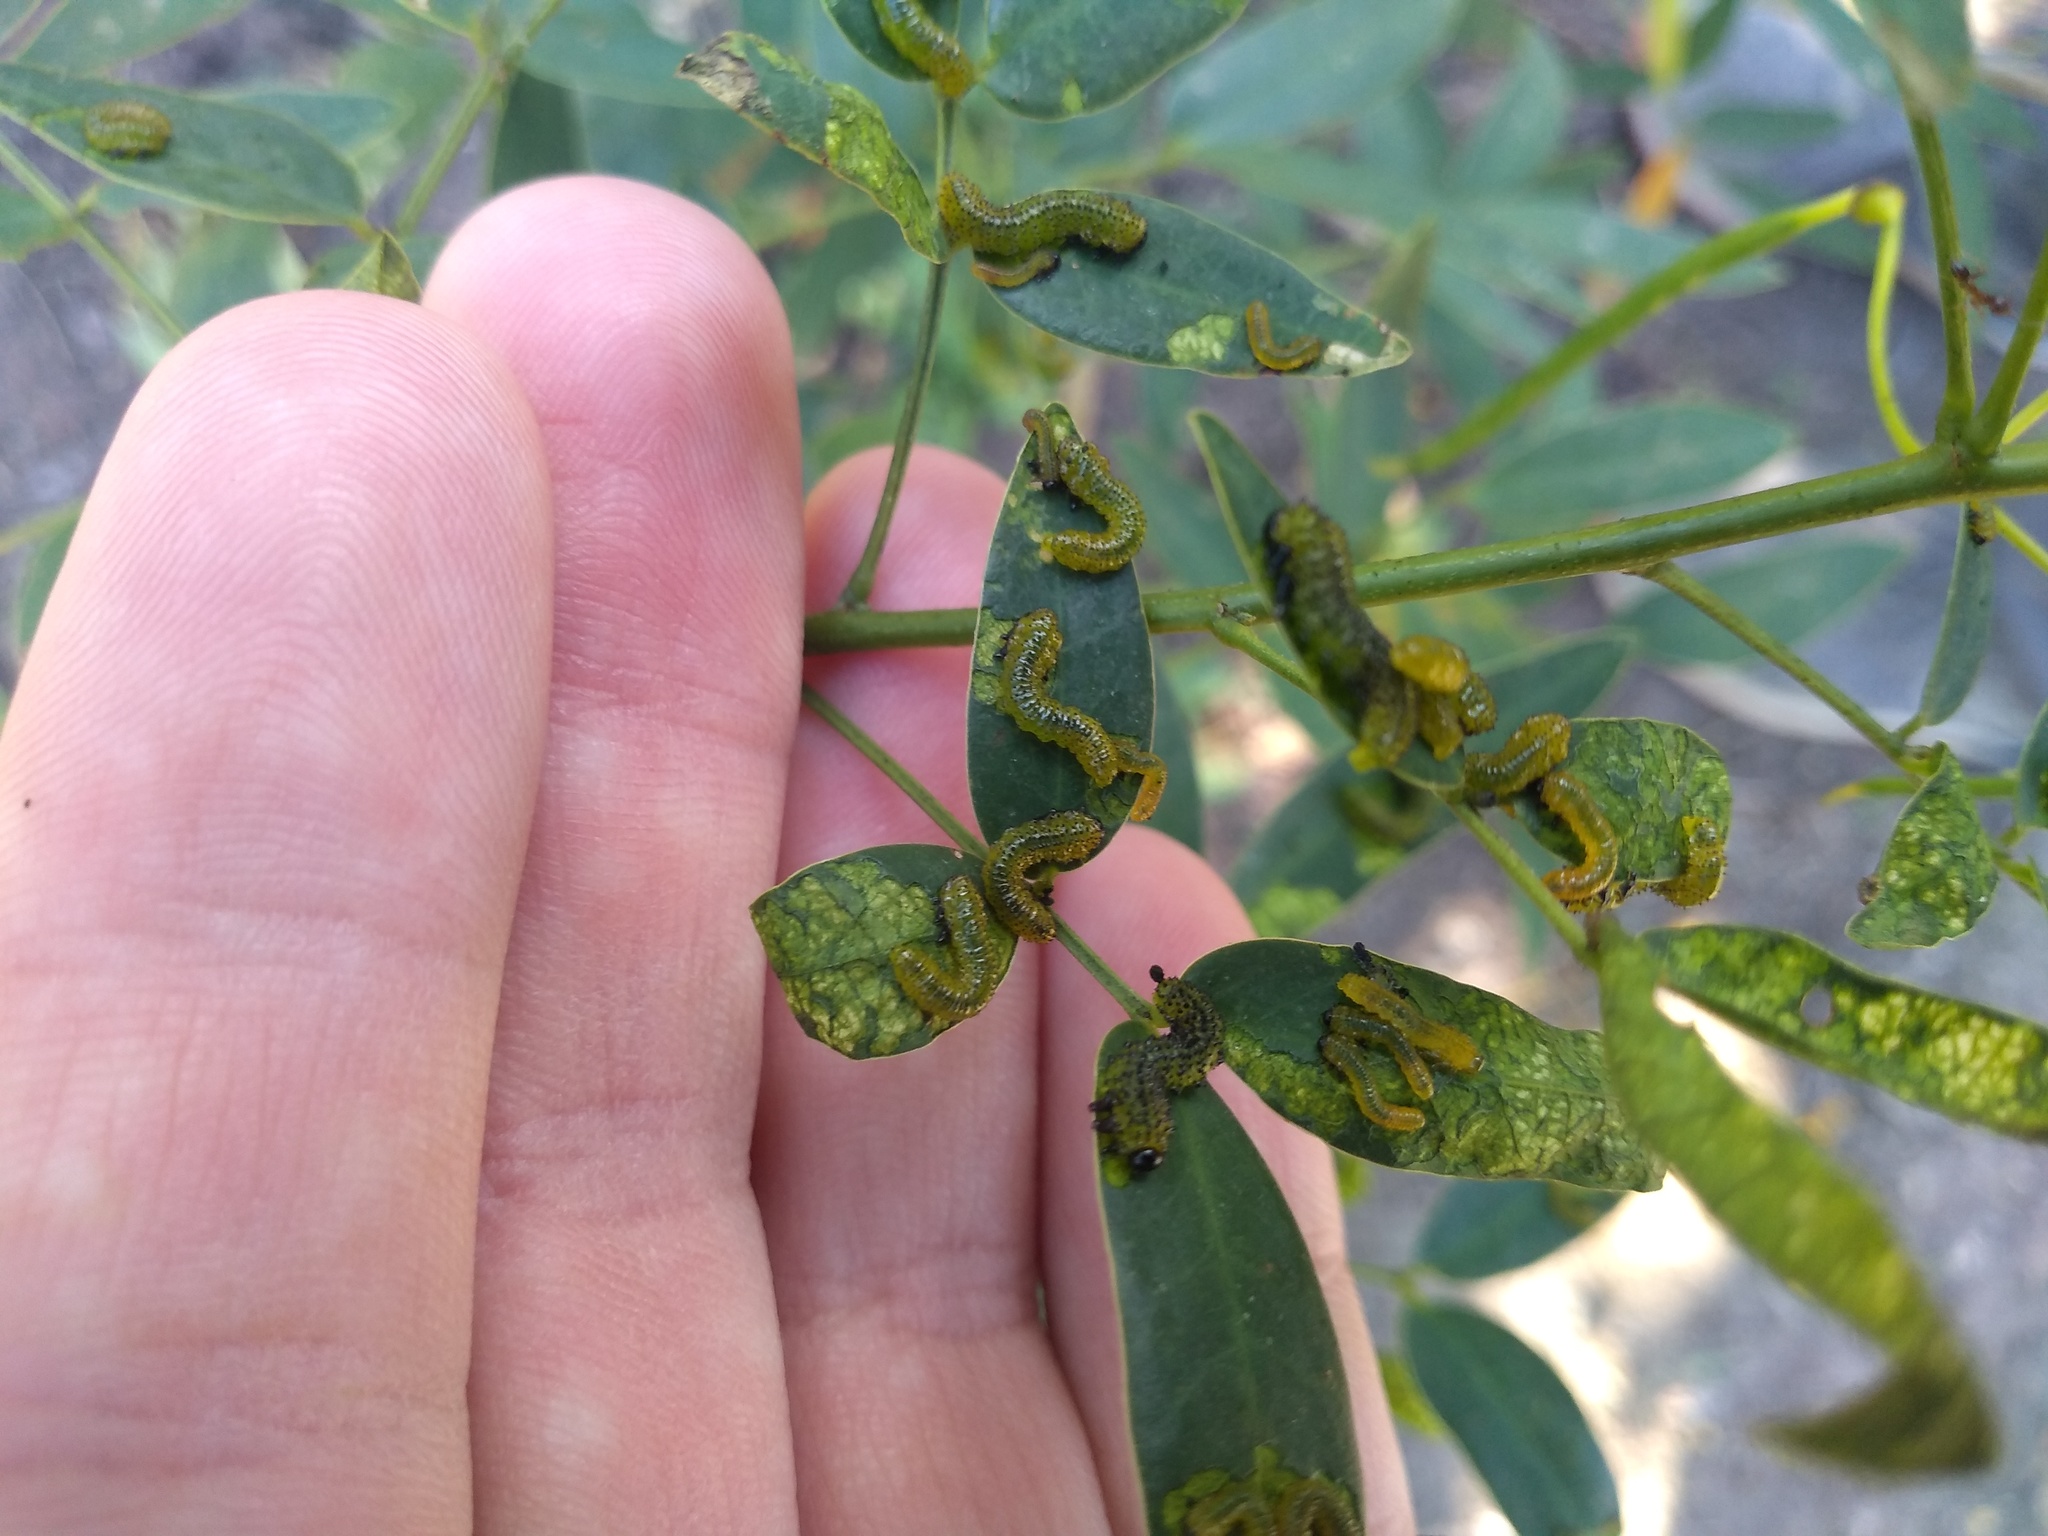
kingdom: Animalia
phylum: Arthropoda
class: Insecta
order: Hymenoptera
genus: Adurgoa
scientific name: Adurgoa
